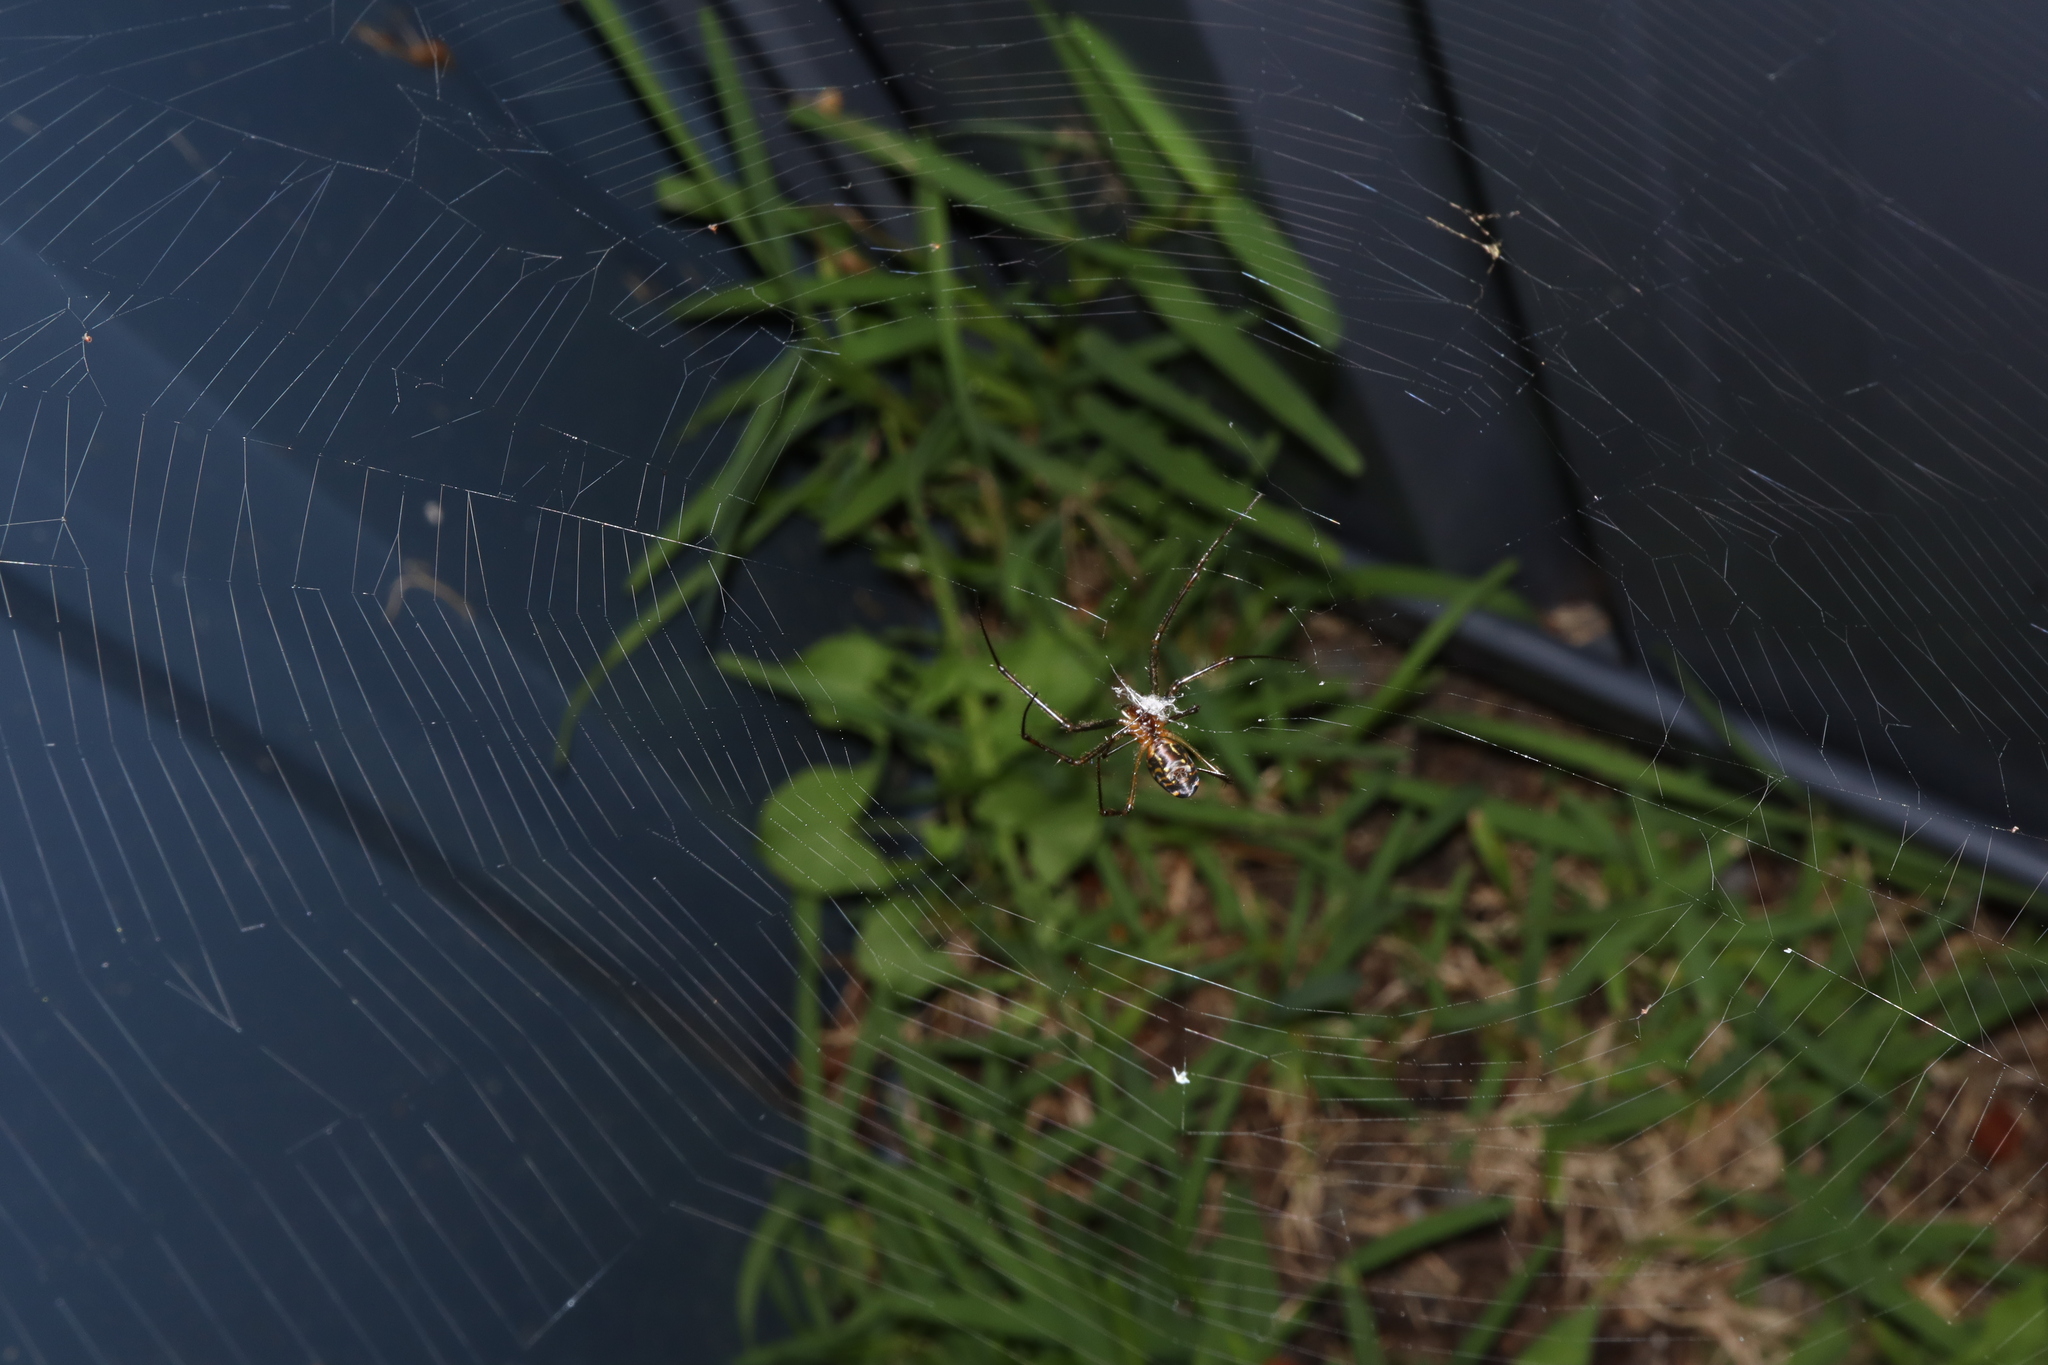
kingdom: Animalia
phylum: Arthropoda
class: Arachnida
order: Araneae
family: Tetragnathidae
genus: Leucauge
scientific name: Leucauge dromedaria
